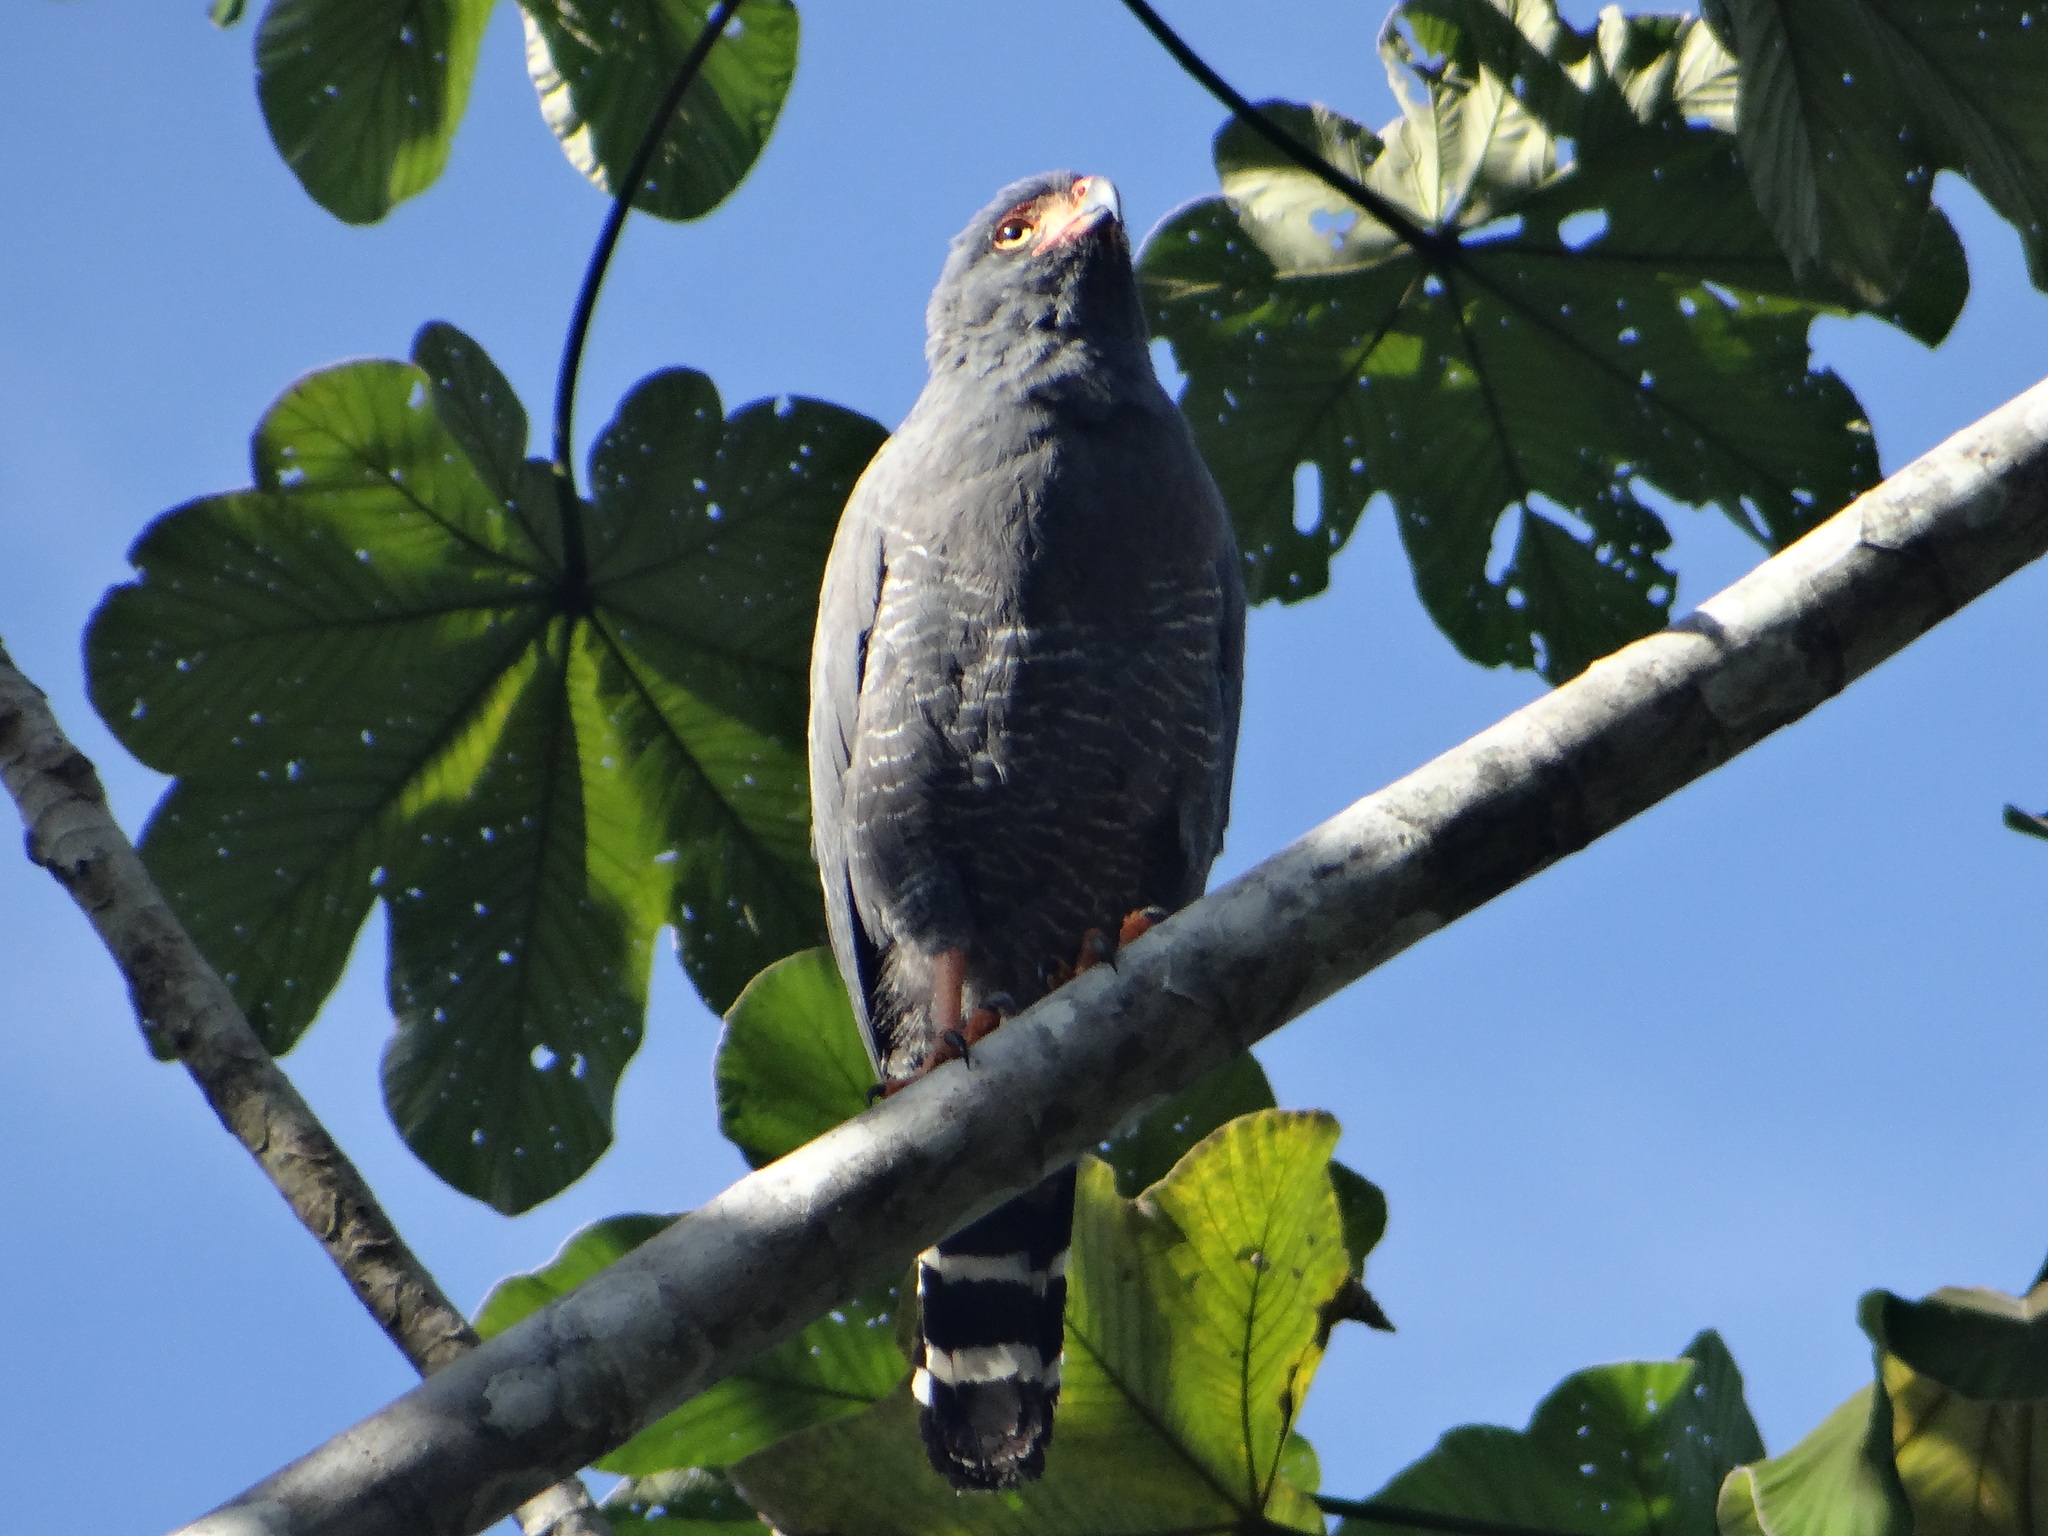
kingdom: Animalia
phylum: Chordata
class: Aves
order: Accipitriformes
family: Accipitridae
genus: Leucopternis
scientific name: Leucopternis schistaceus
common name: Slate-colored hawk
